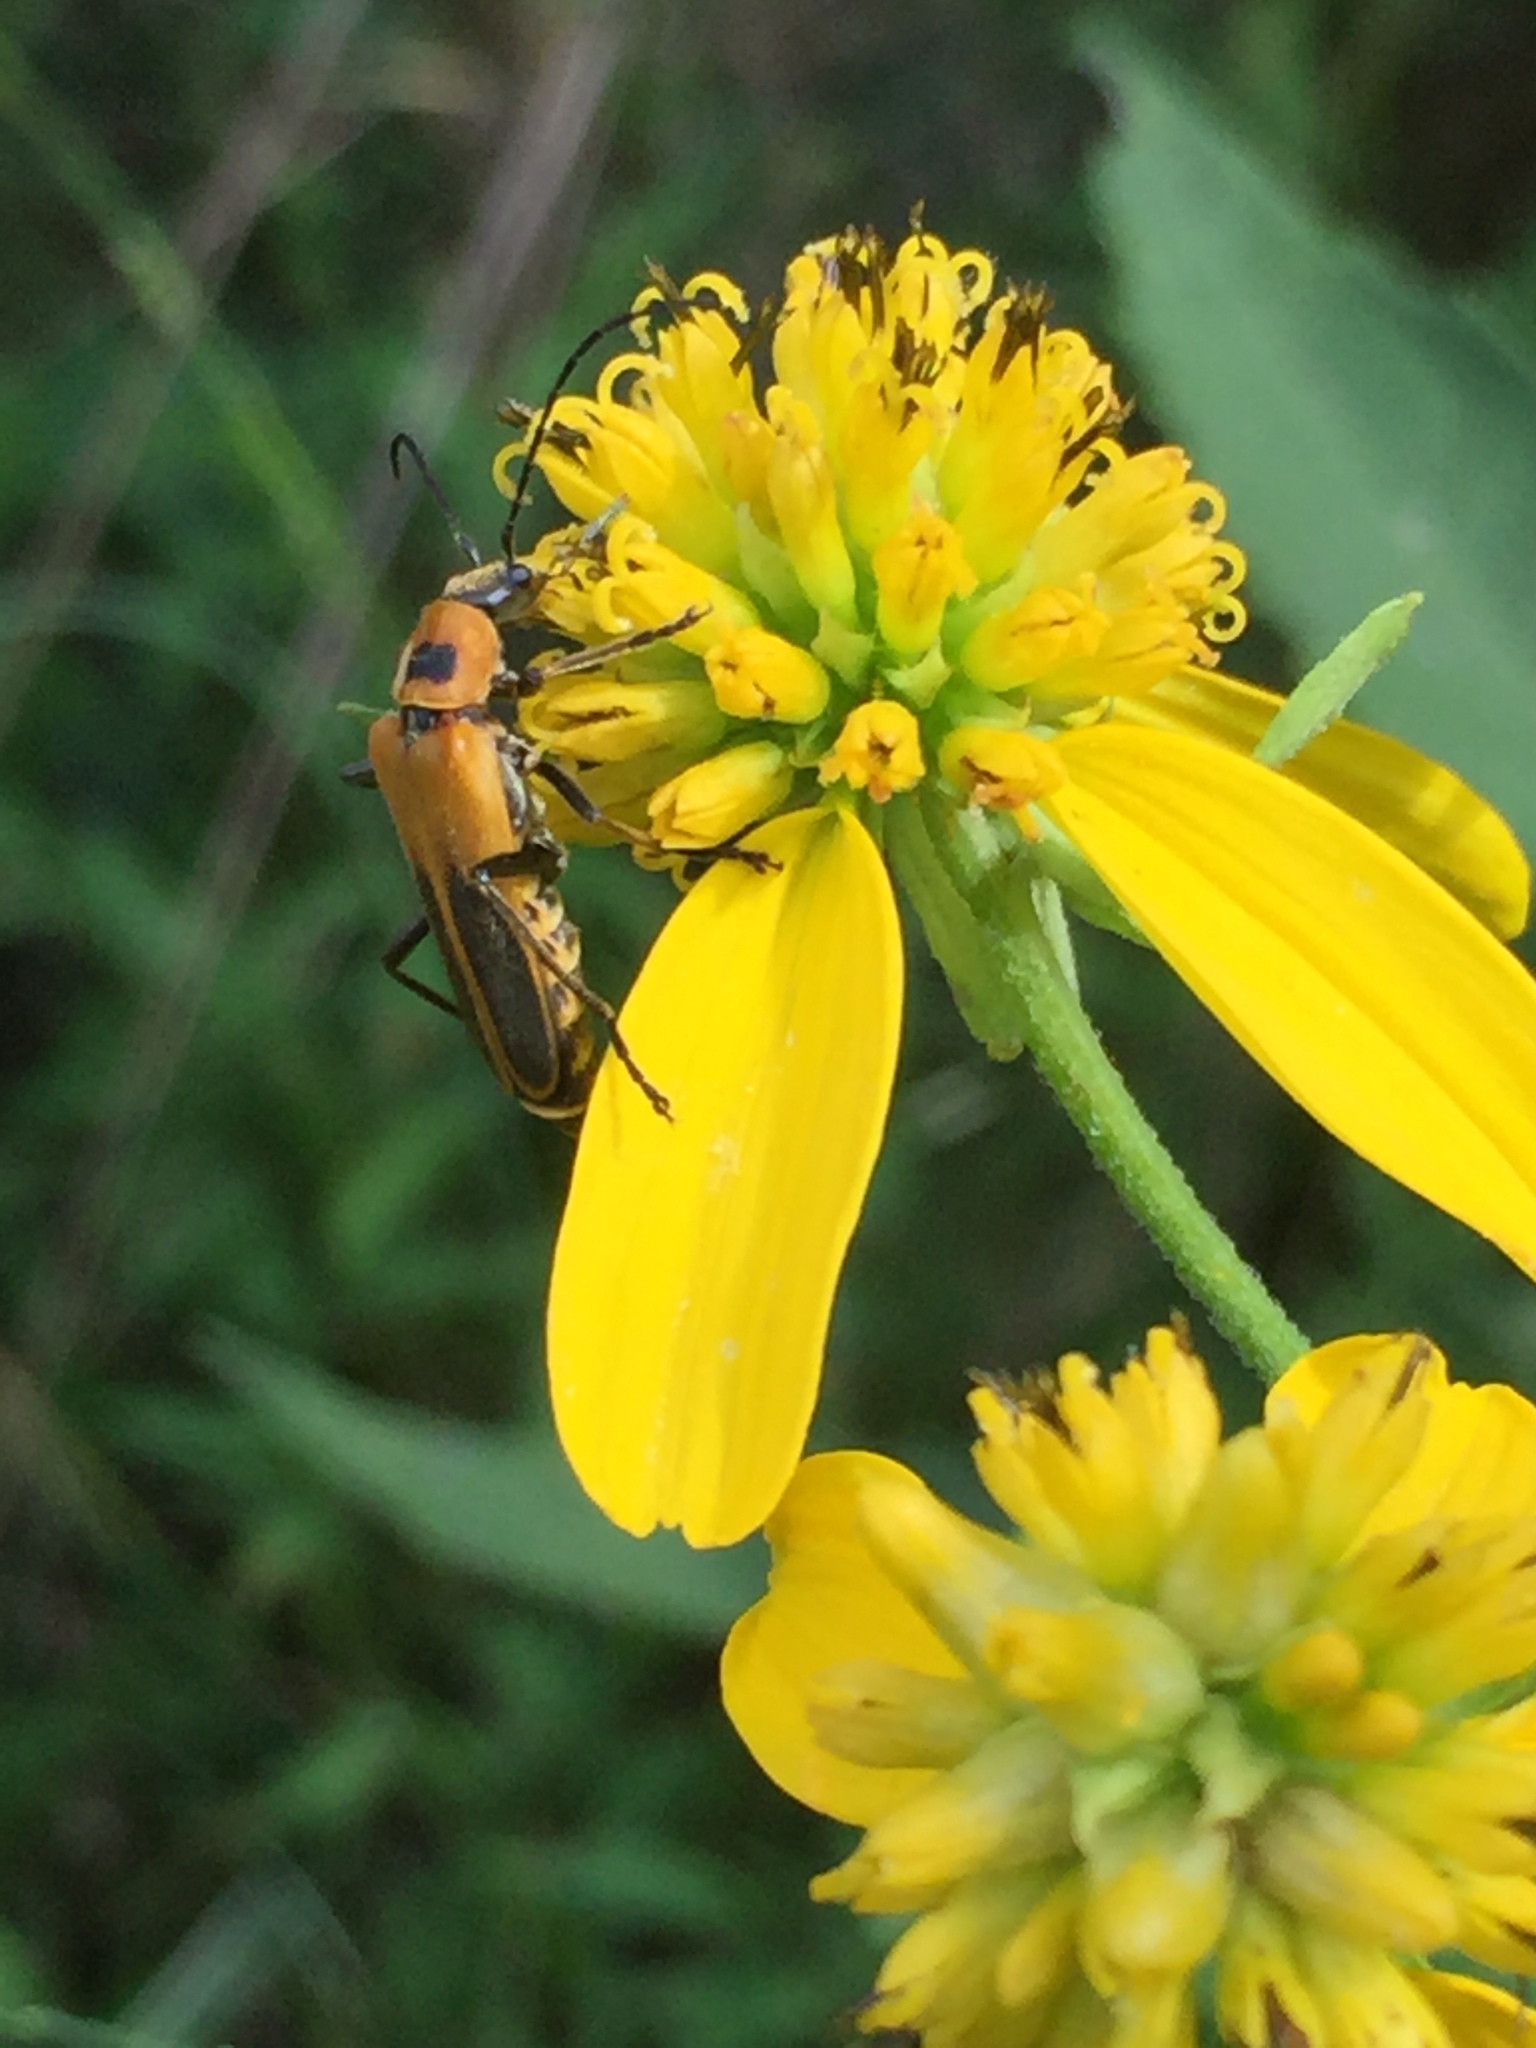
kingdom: Animalia
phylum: Arthropoda
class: Insecta
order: Coleoptera
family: Cantharidae
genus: Chauliognathus
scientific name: Chauliognathus pensylvanicus
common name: Goldenrod soldier beetle
